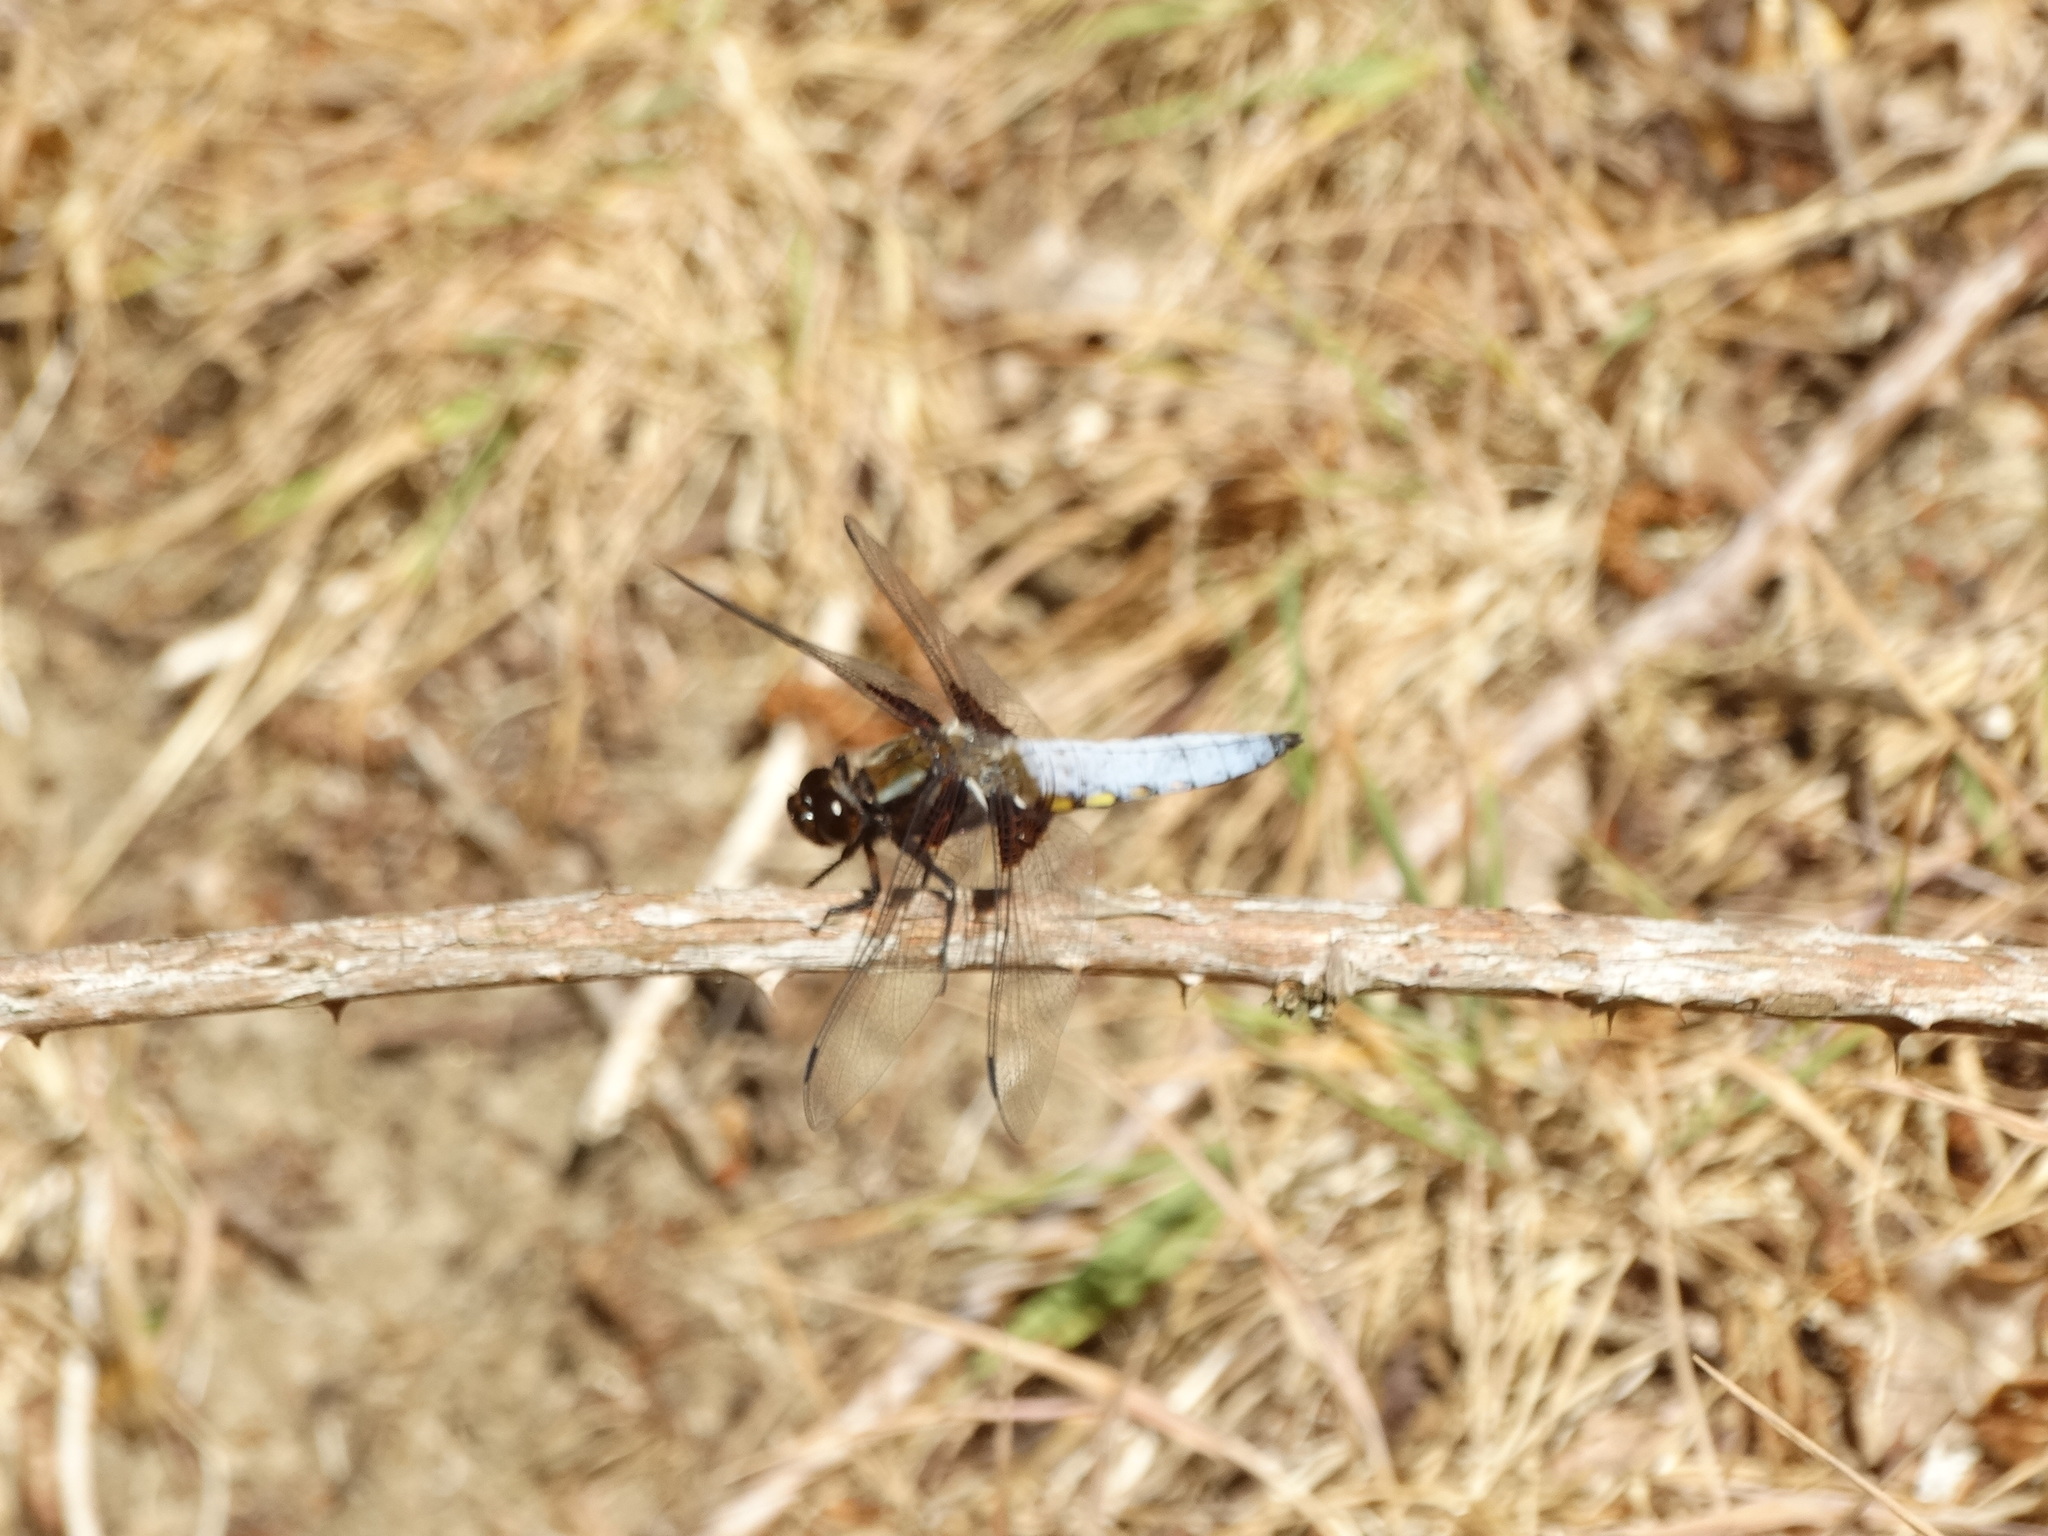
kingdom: Animalia
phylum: Arthropoda
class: Insecta
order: Odonata
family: Libellulidae
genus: Libellula
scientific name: Libellula depressa
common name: Broad-bodied chaser
